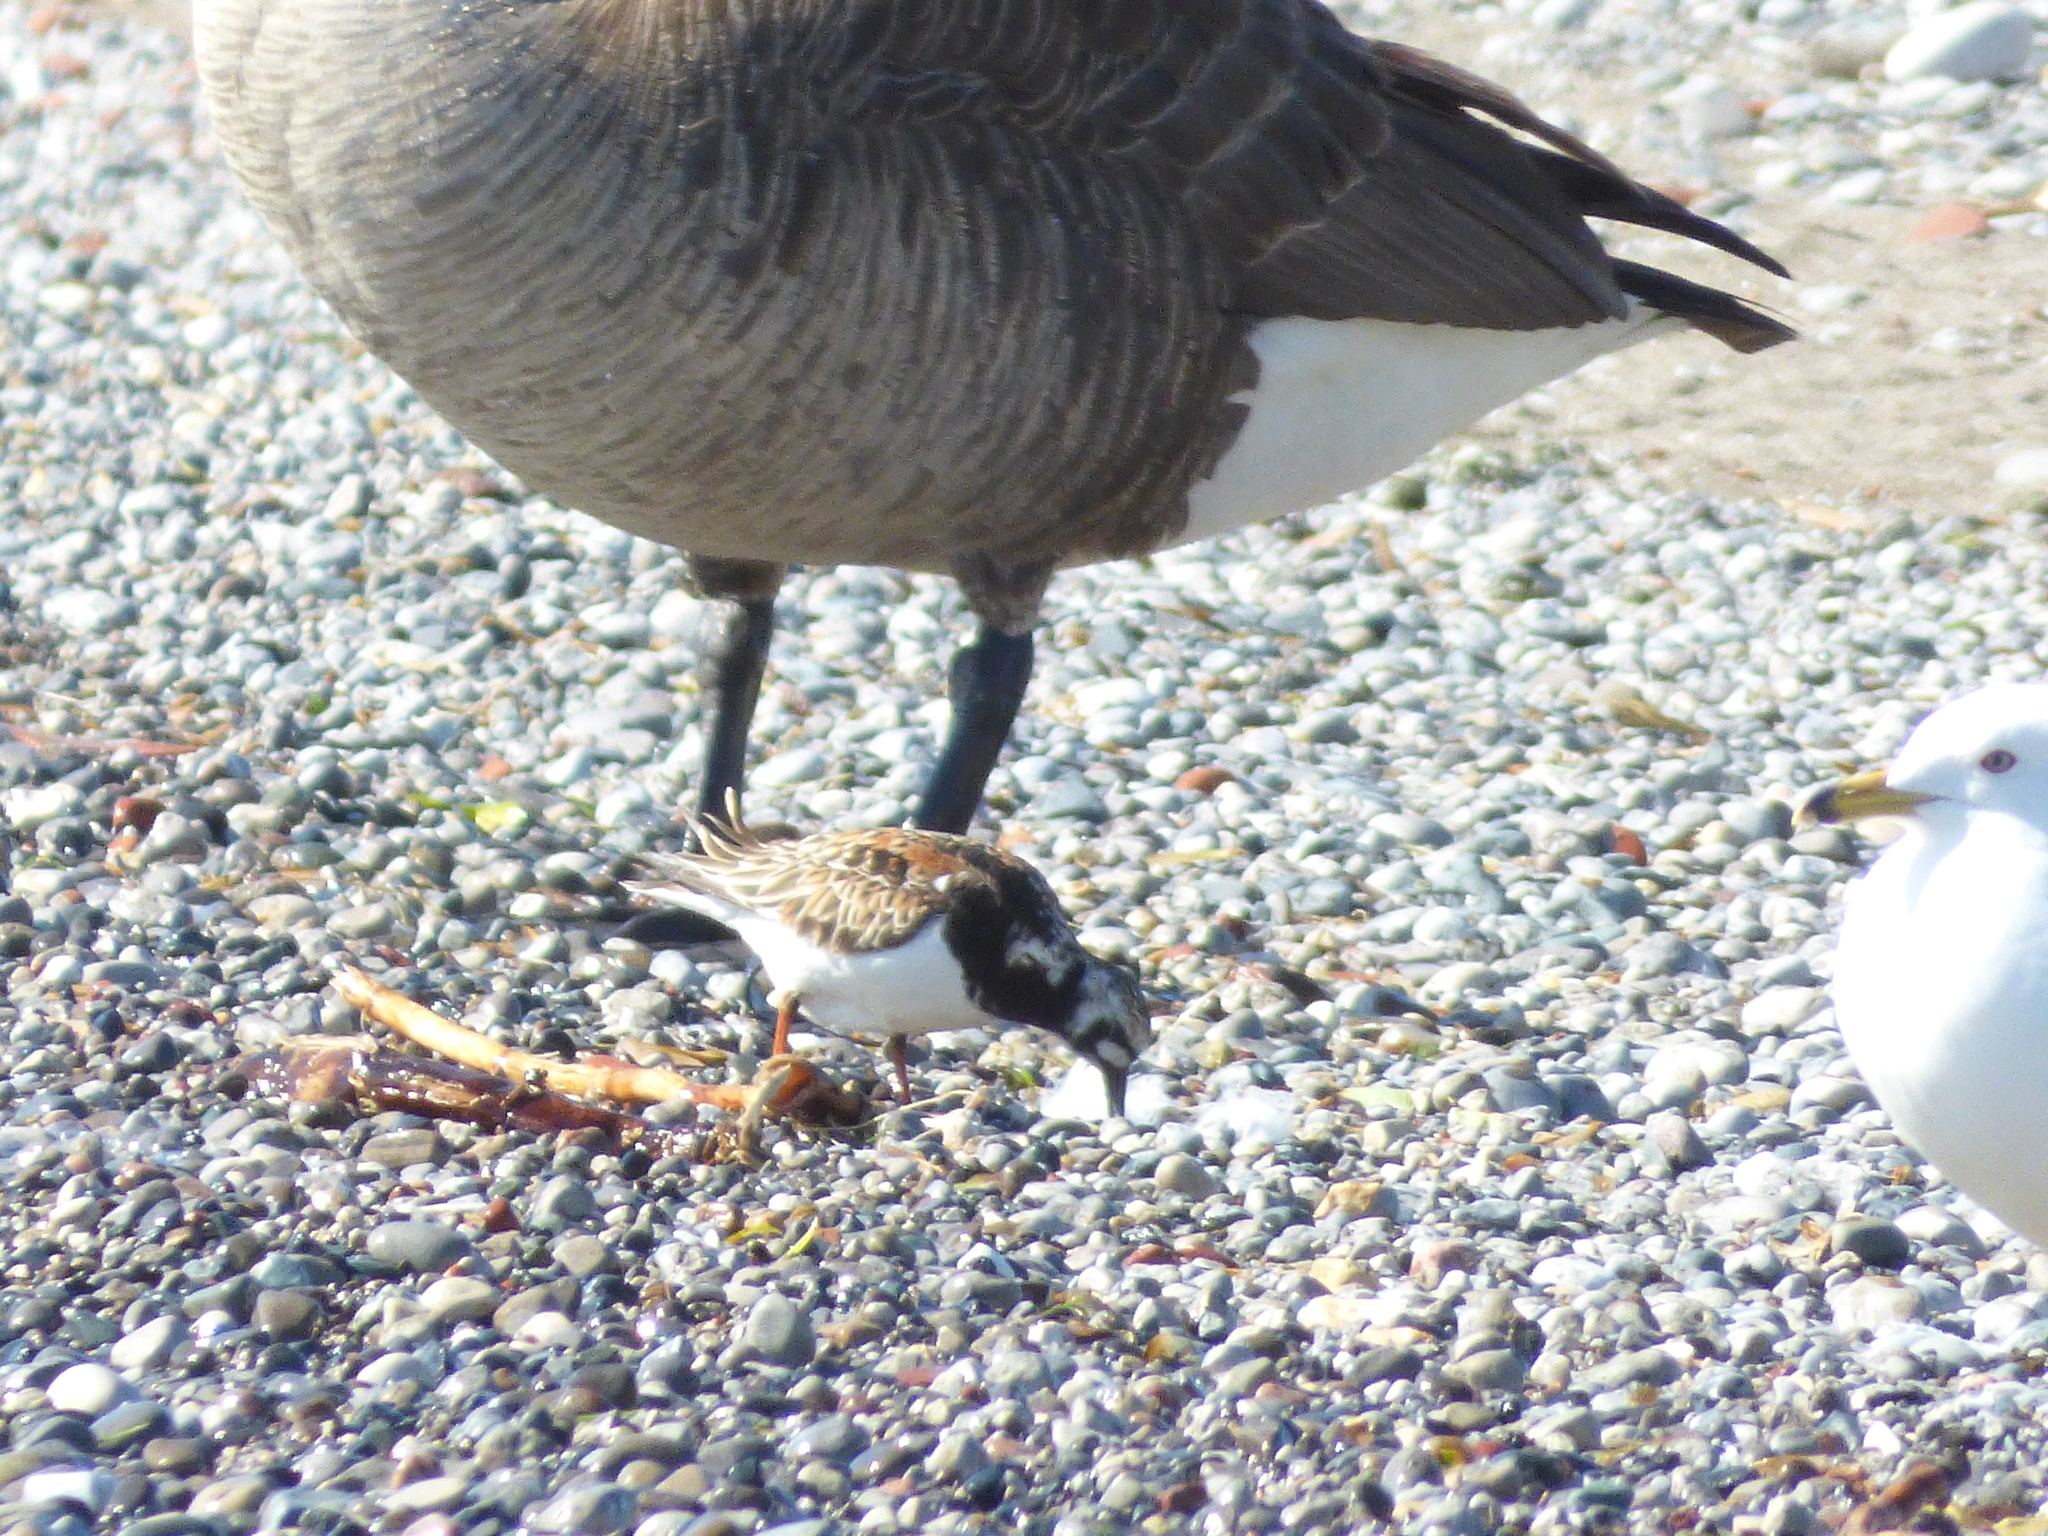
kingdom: Animalia
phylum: Chordata
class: Aves
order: Charadriiformes
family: Scolopacidae
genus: Arenaria
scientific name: Arenaria interpres
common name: Ruddy turnstone
